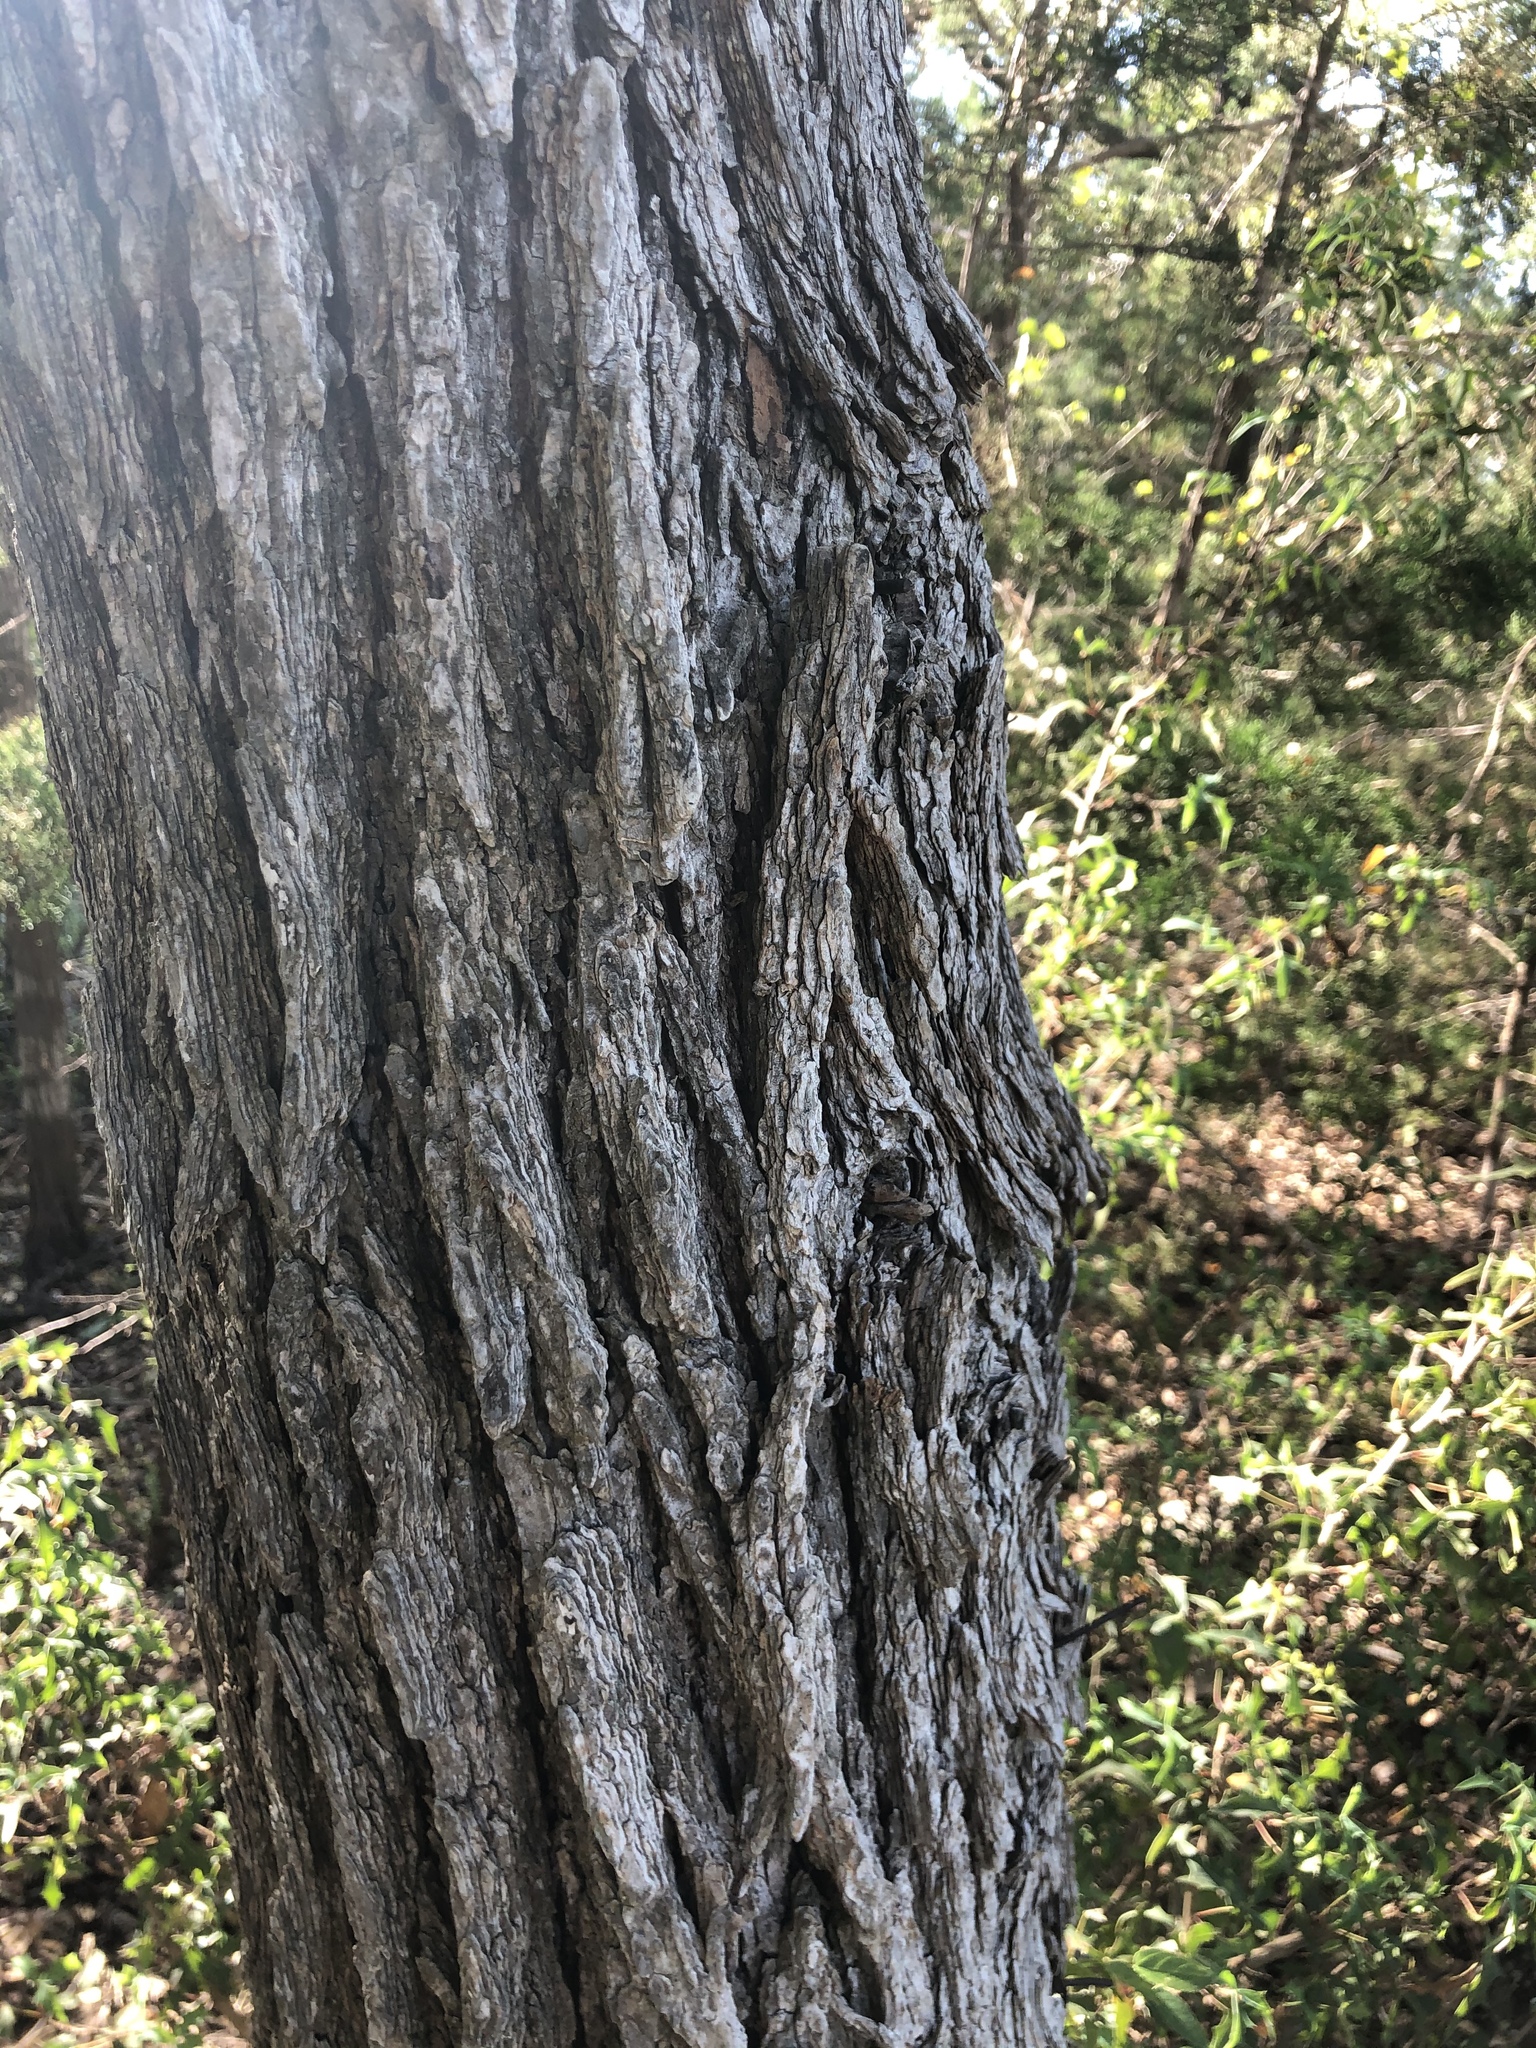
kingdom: Plantae
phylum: Tracheophyta
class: Magnoliopsida
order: Rosales
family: Ulmaceae
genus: Ulmus
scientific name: Ulmus crassifolia
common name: Basket elm
